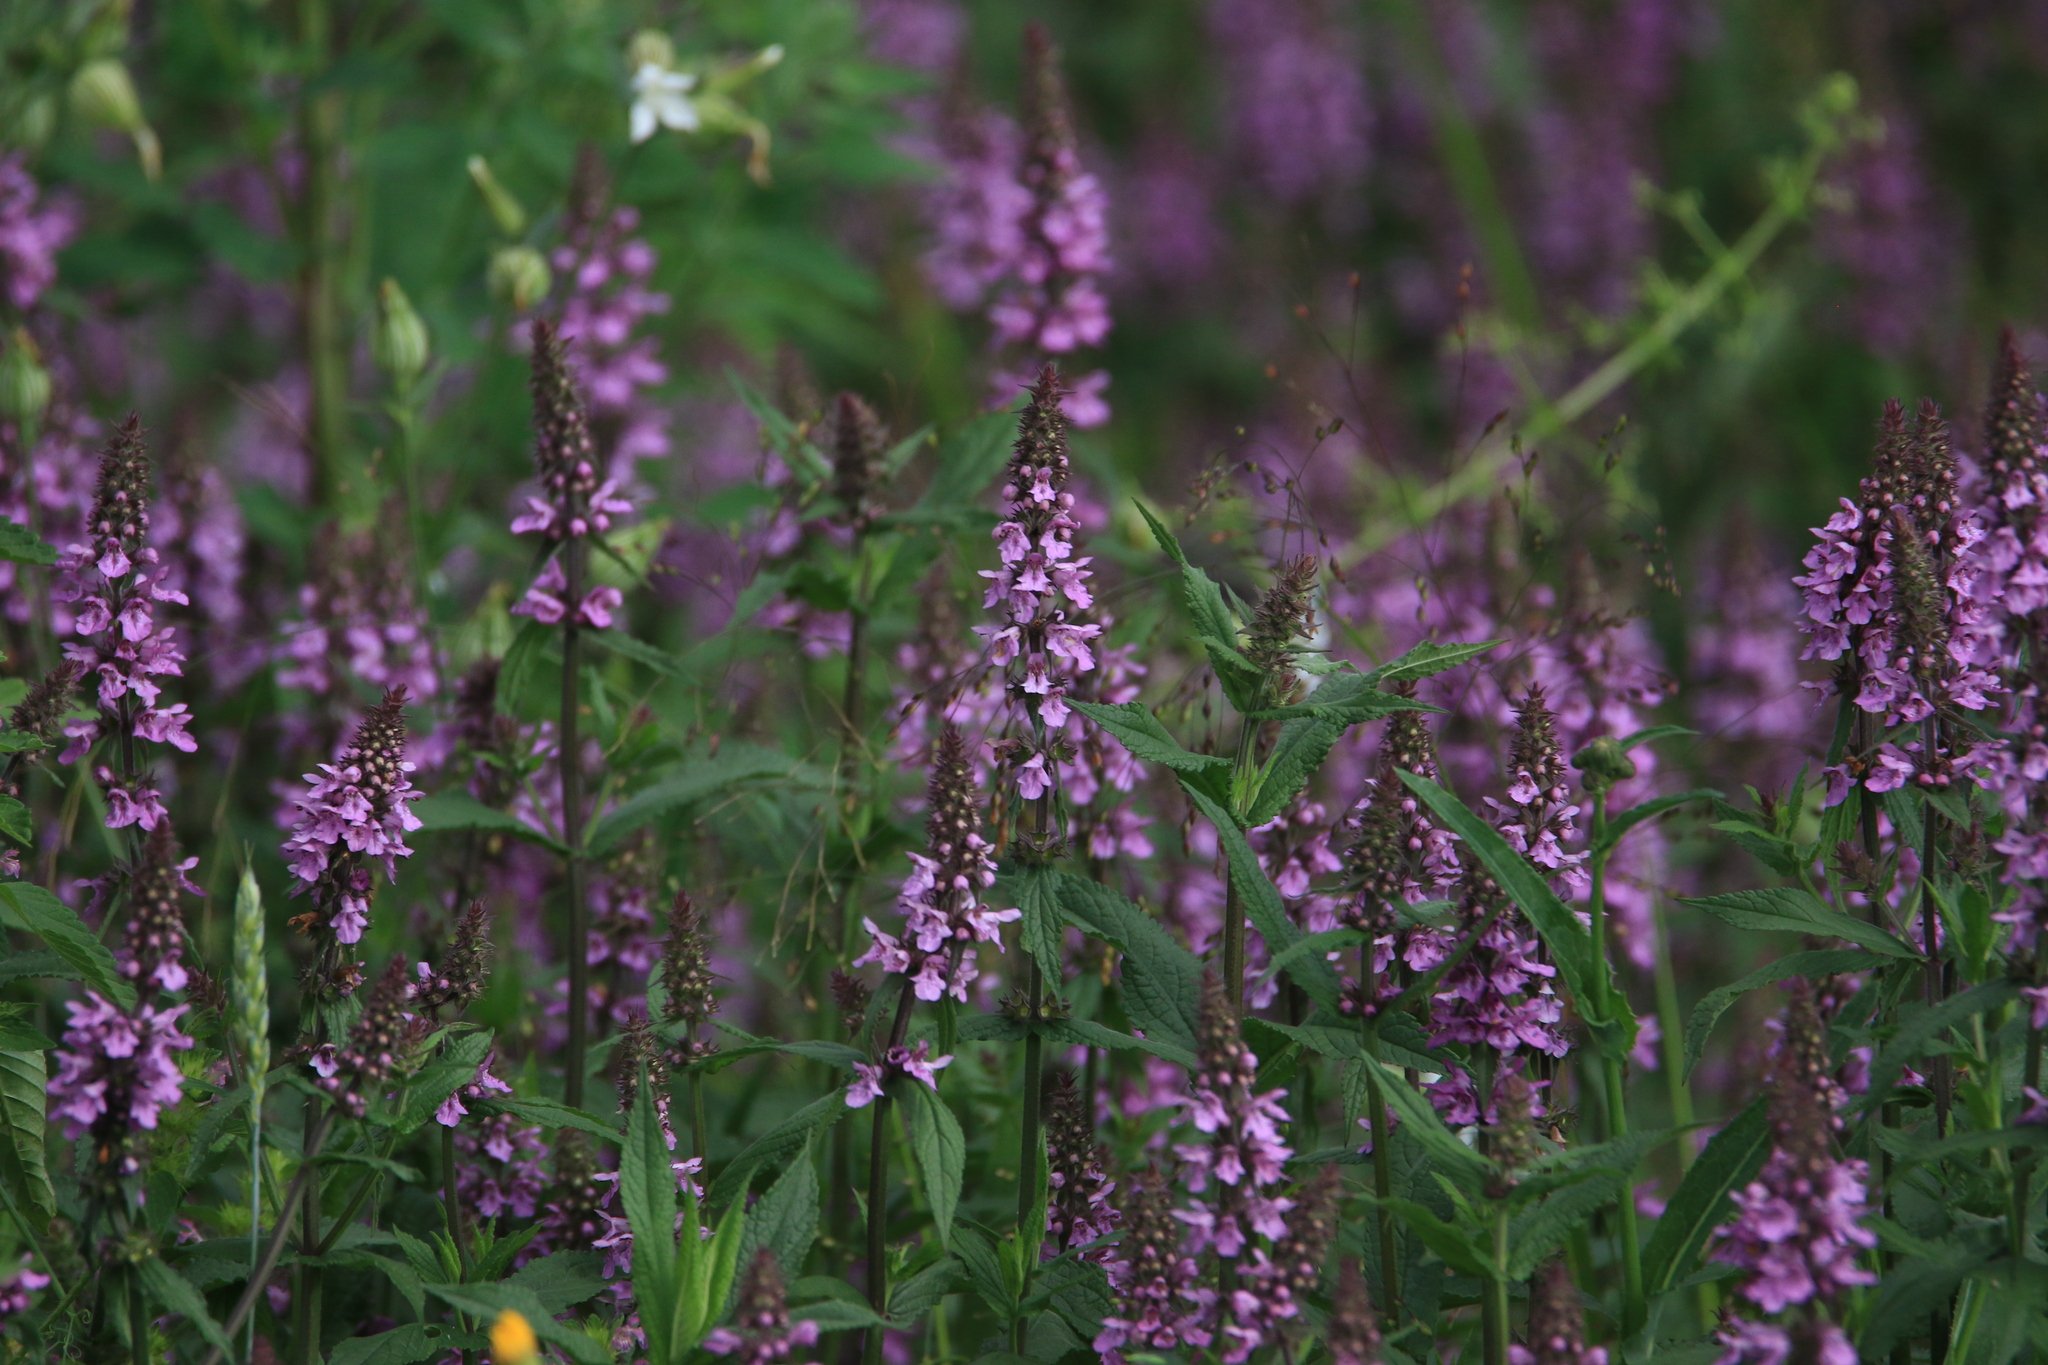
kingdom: Plantae
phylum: Tracheophyta
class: Magnoliopsida
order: Lamiales
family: Lamiaceae
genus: Stachys
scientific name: Stachys palustris
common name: Marsh woundwort
